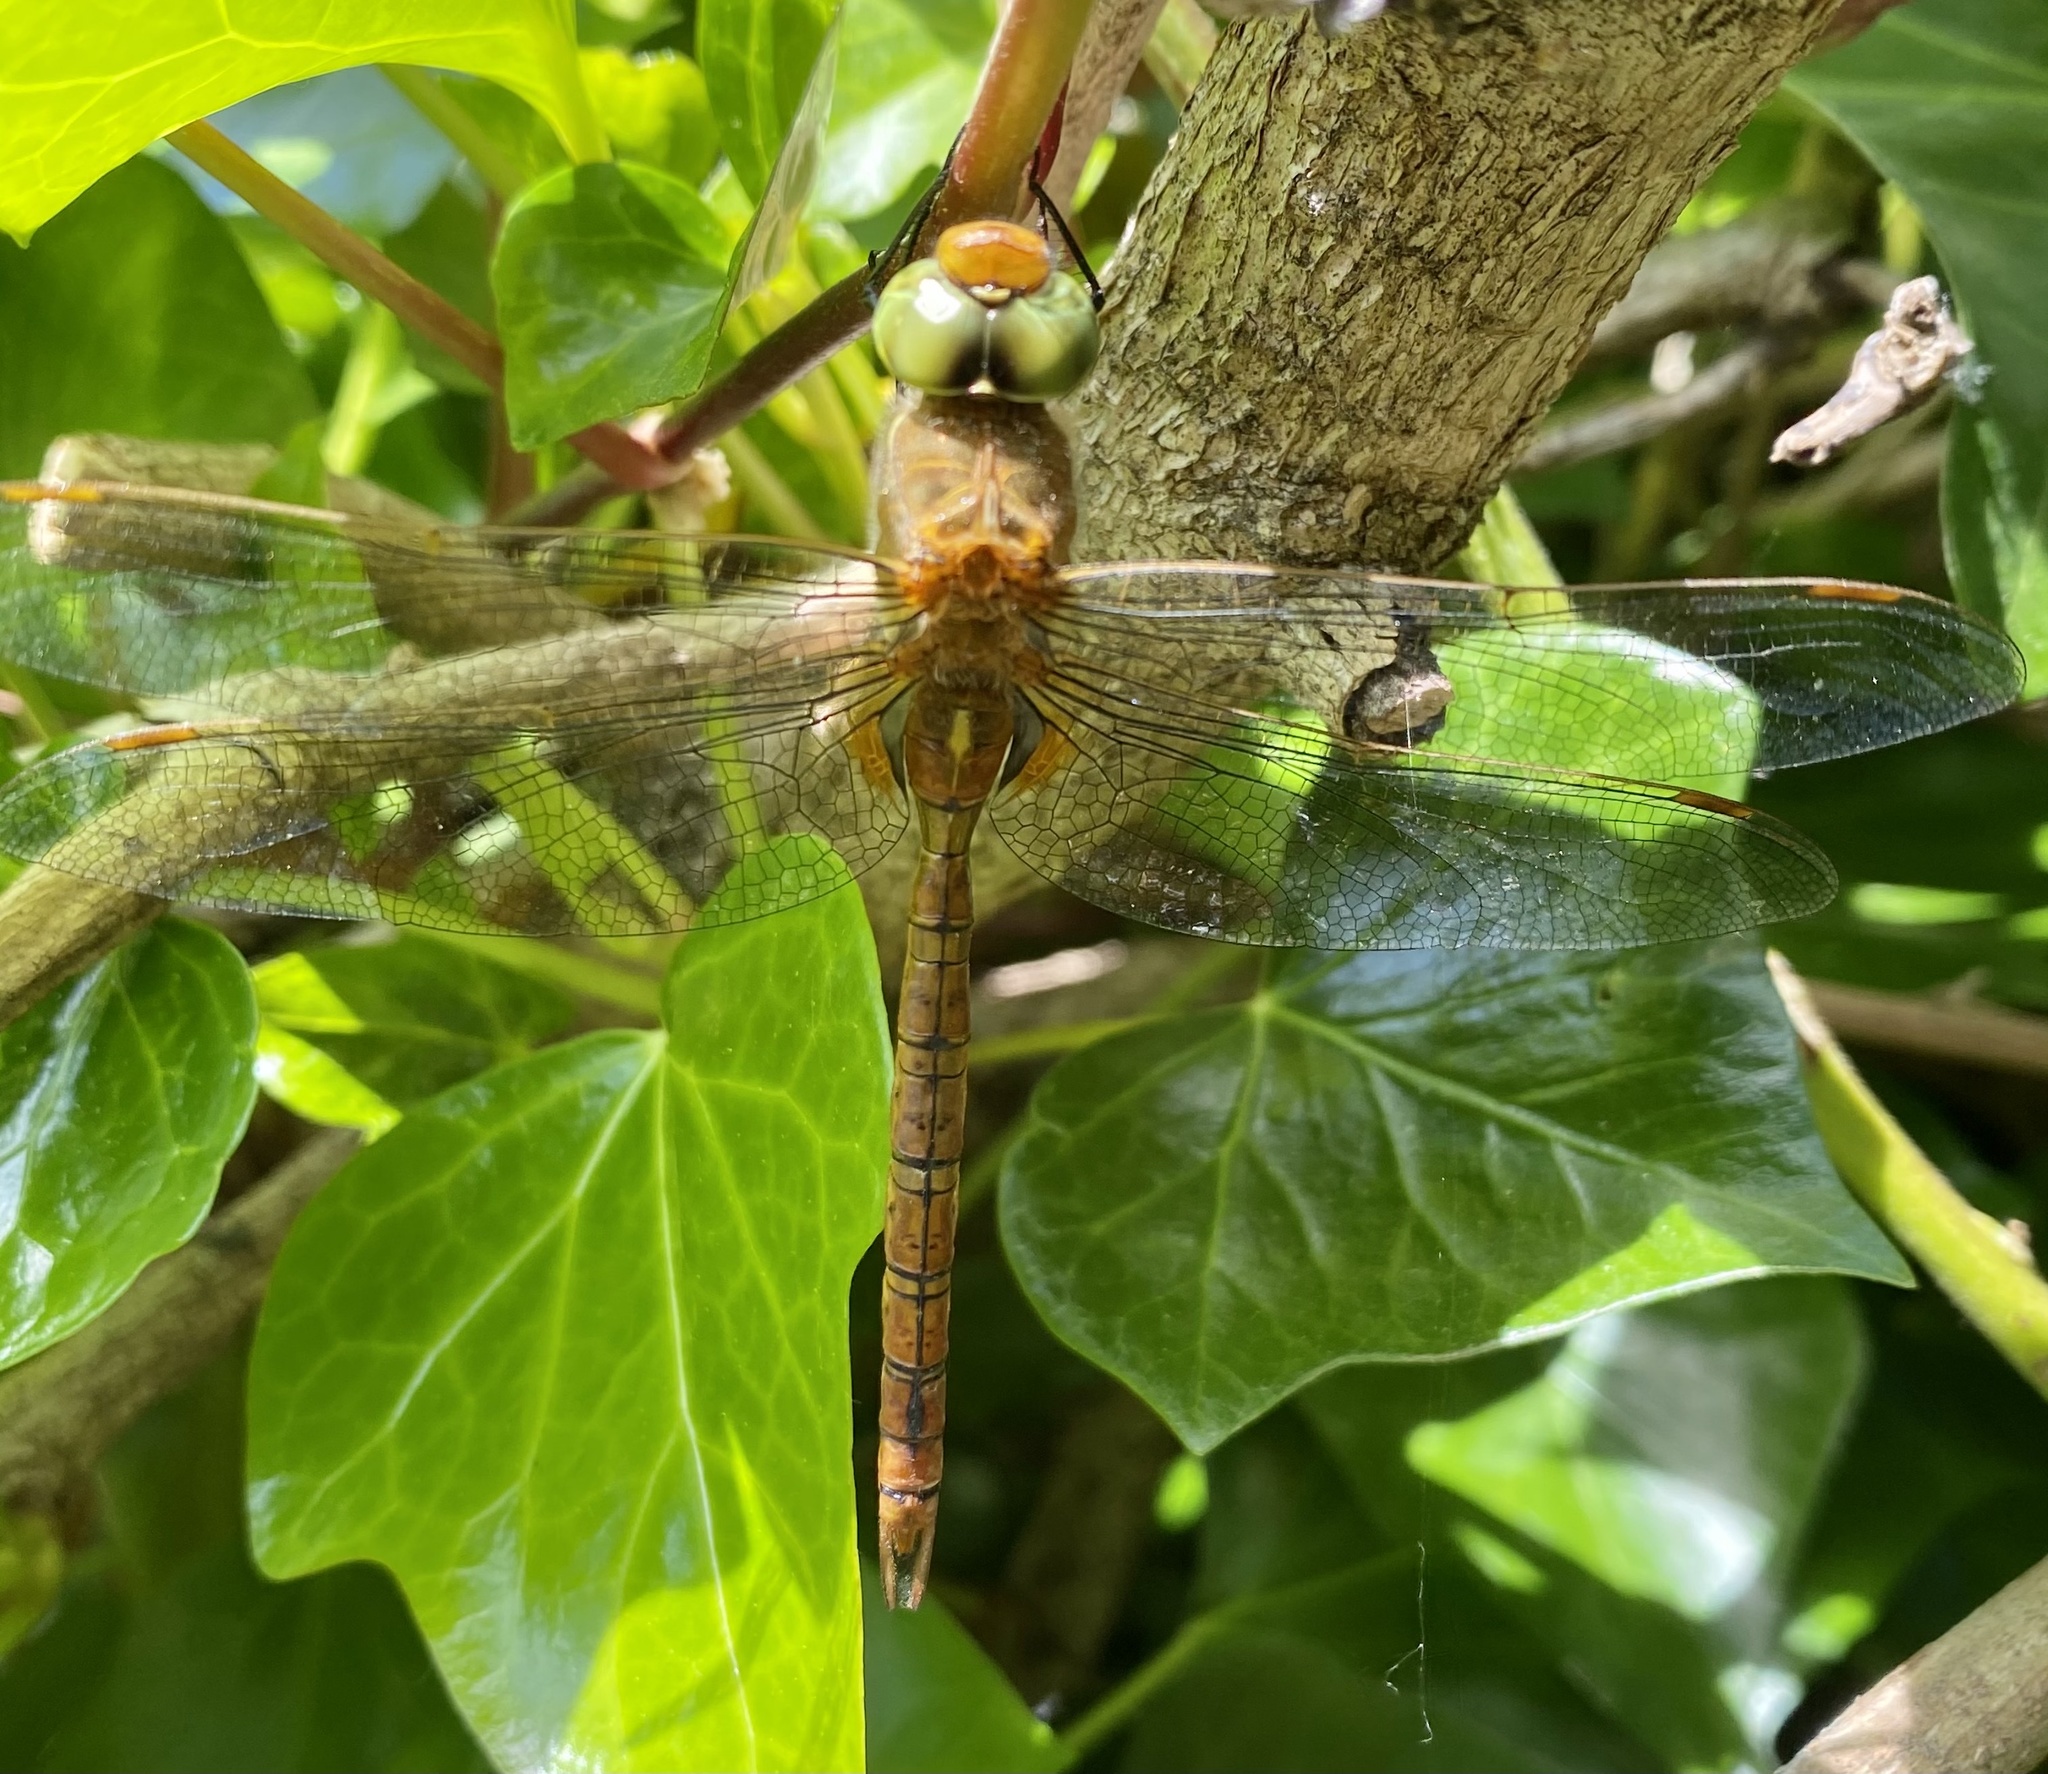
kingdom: Animalia
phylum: Arthropoda
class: Insecta
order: Odonata
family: Aeshnidae
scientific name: Aeshnidae
